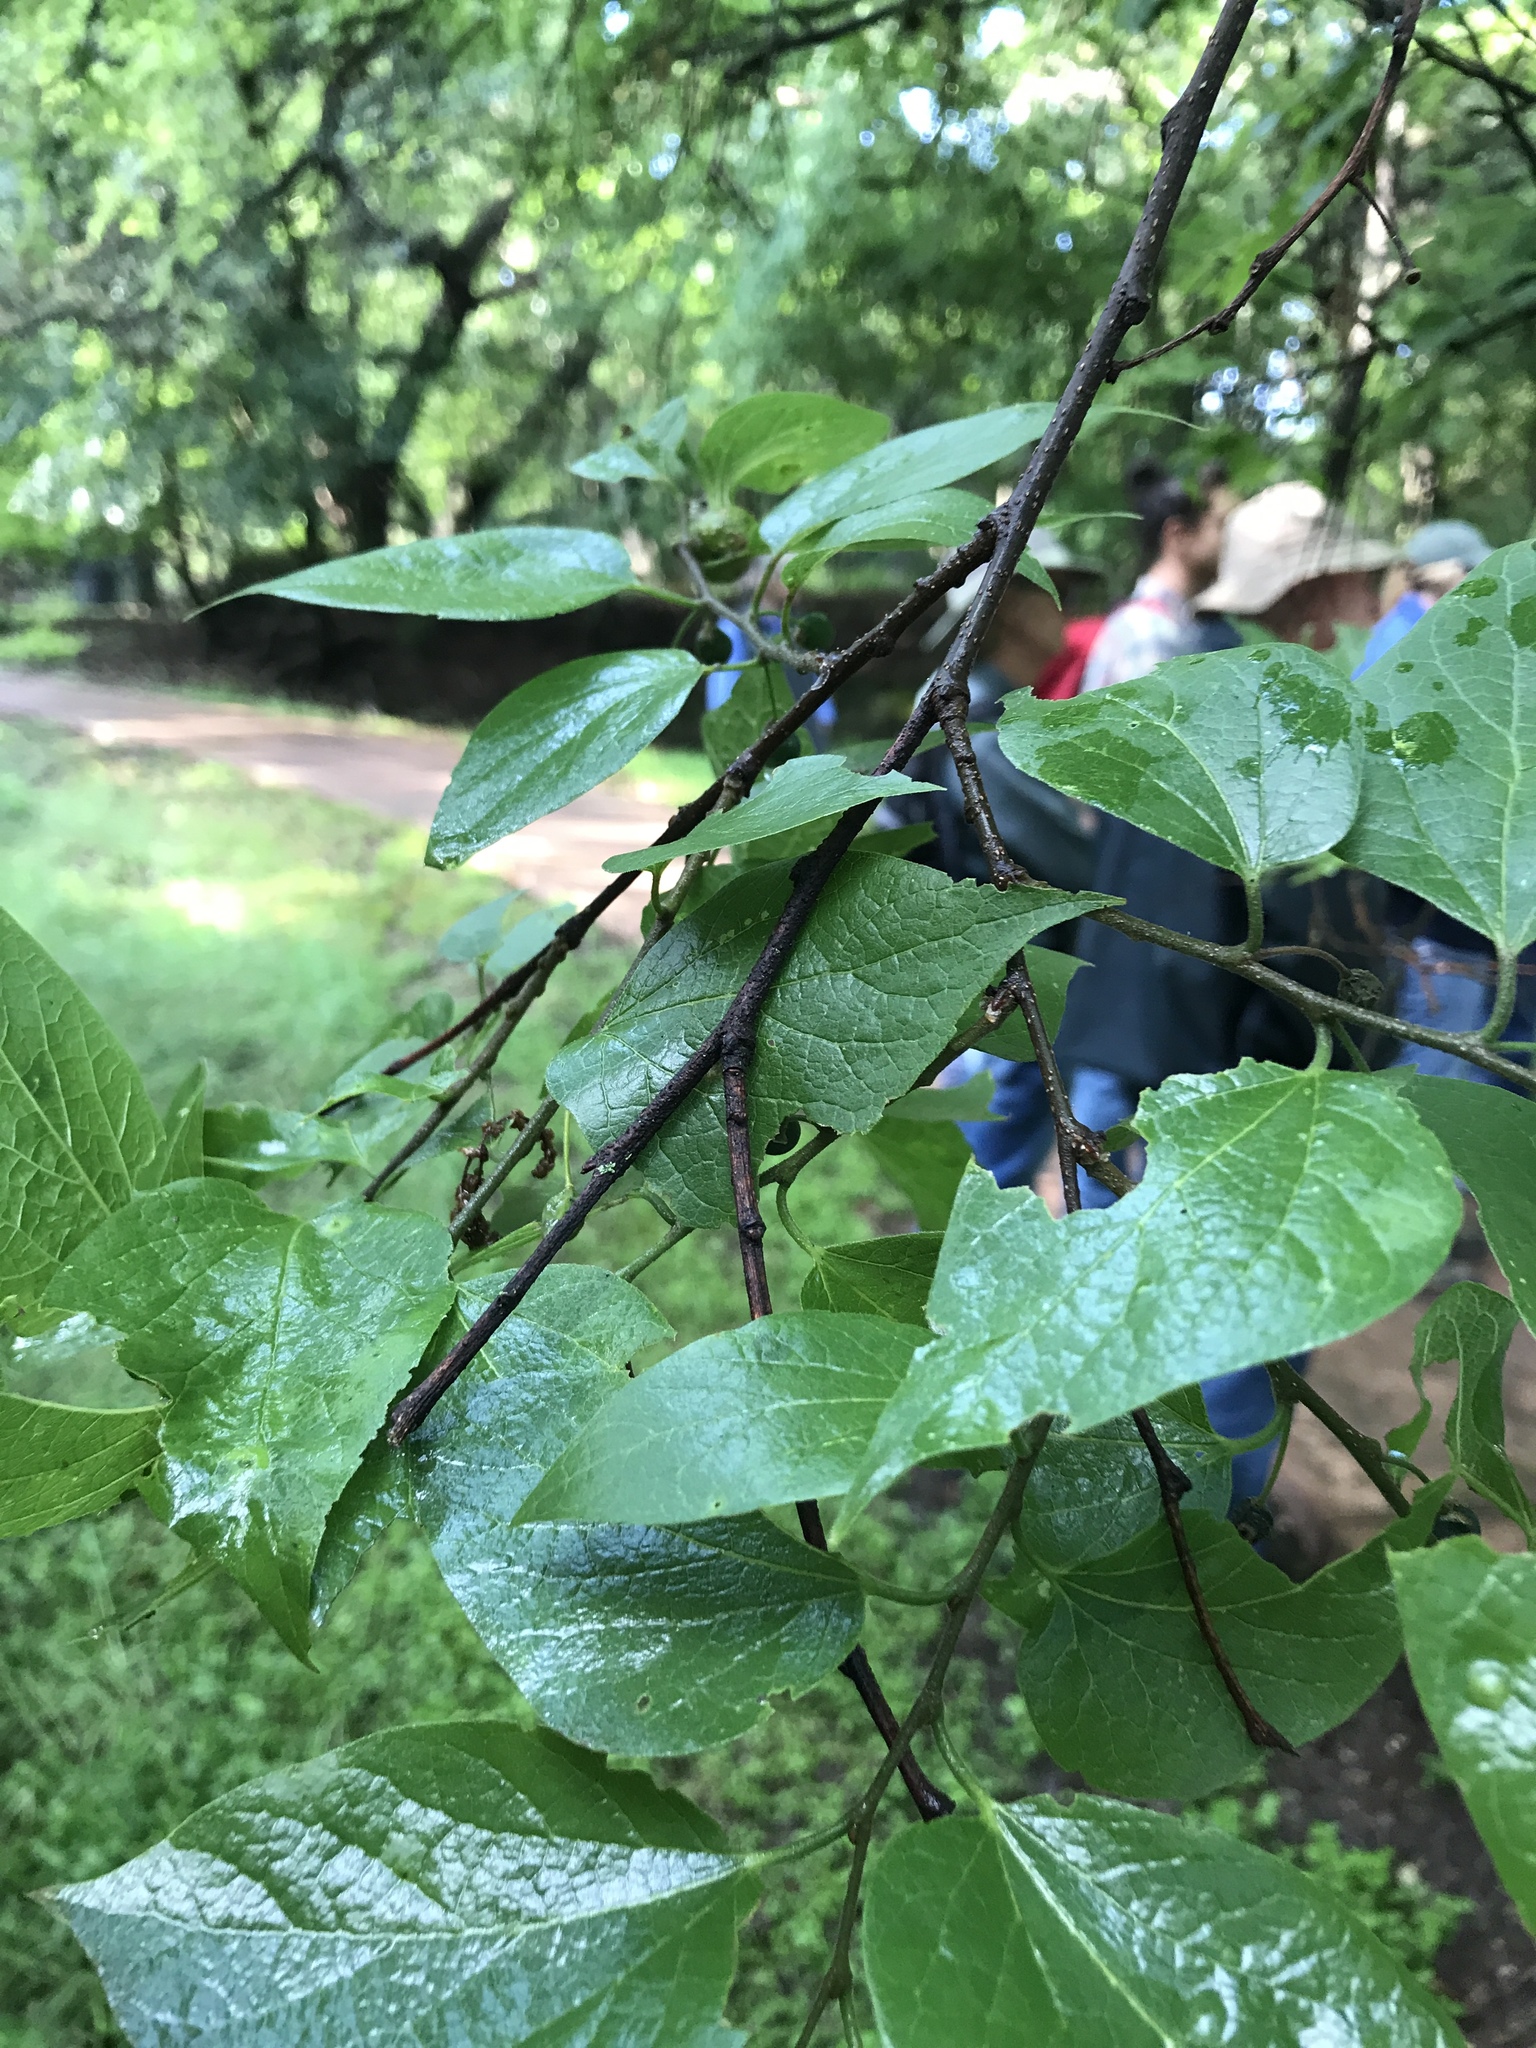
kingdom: Plantae
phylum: Tracheophyta
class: Magnoliopsida
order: Rosales
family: Cannabaceae
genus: Celtis
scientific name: Celtis laevigata
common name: Sugarberry
